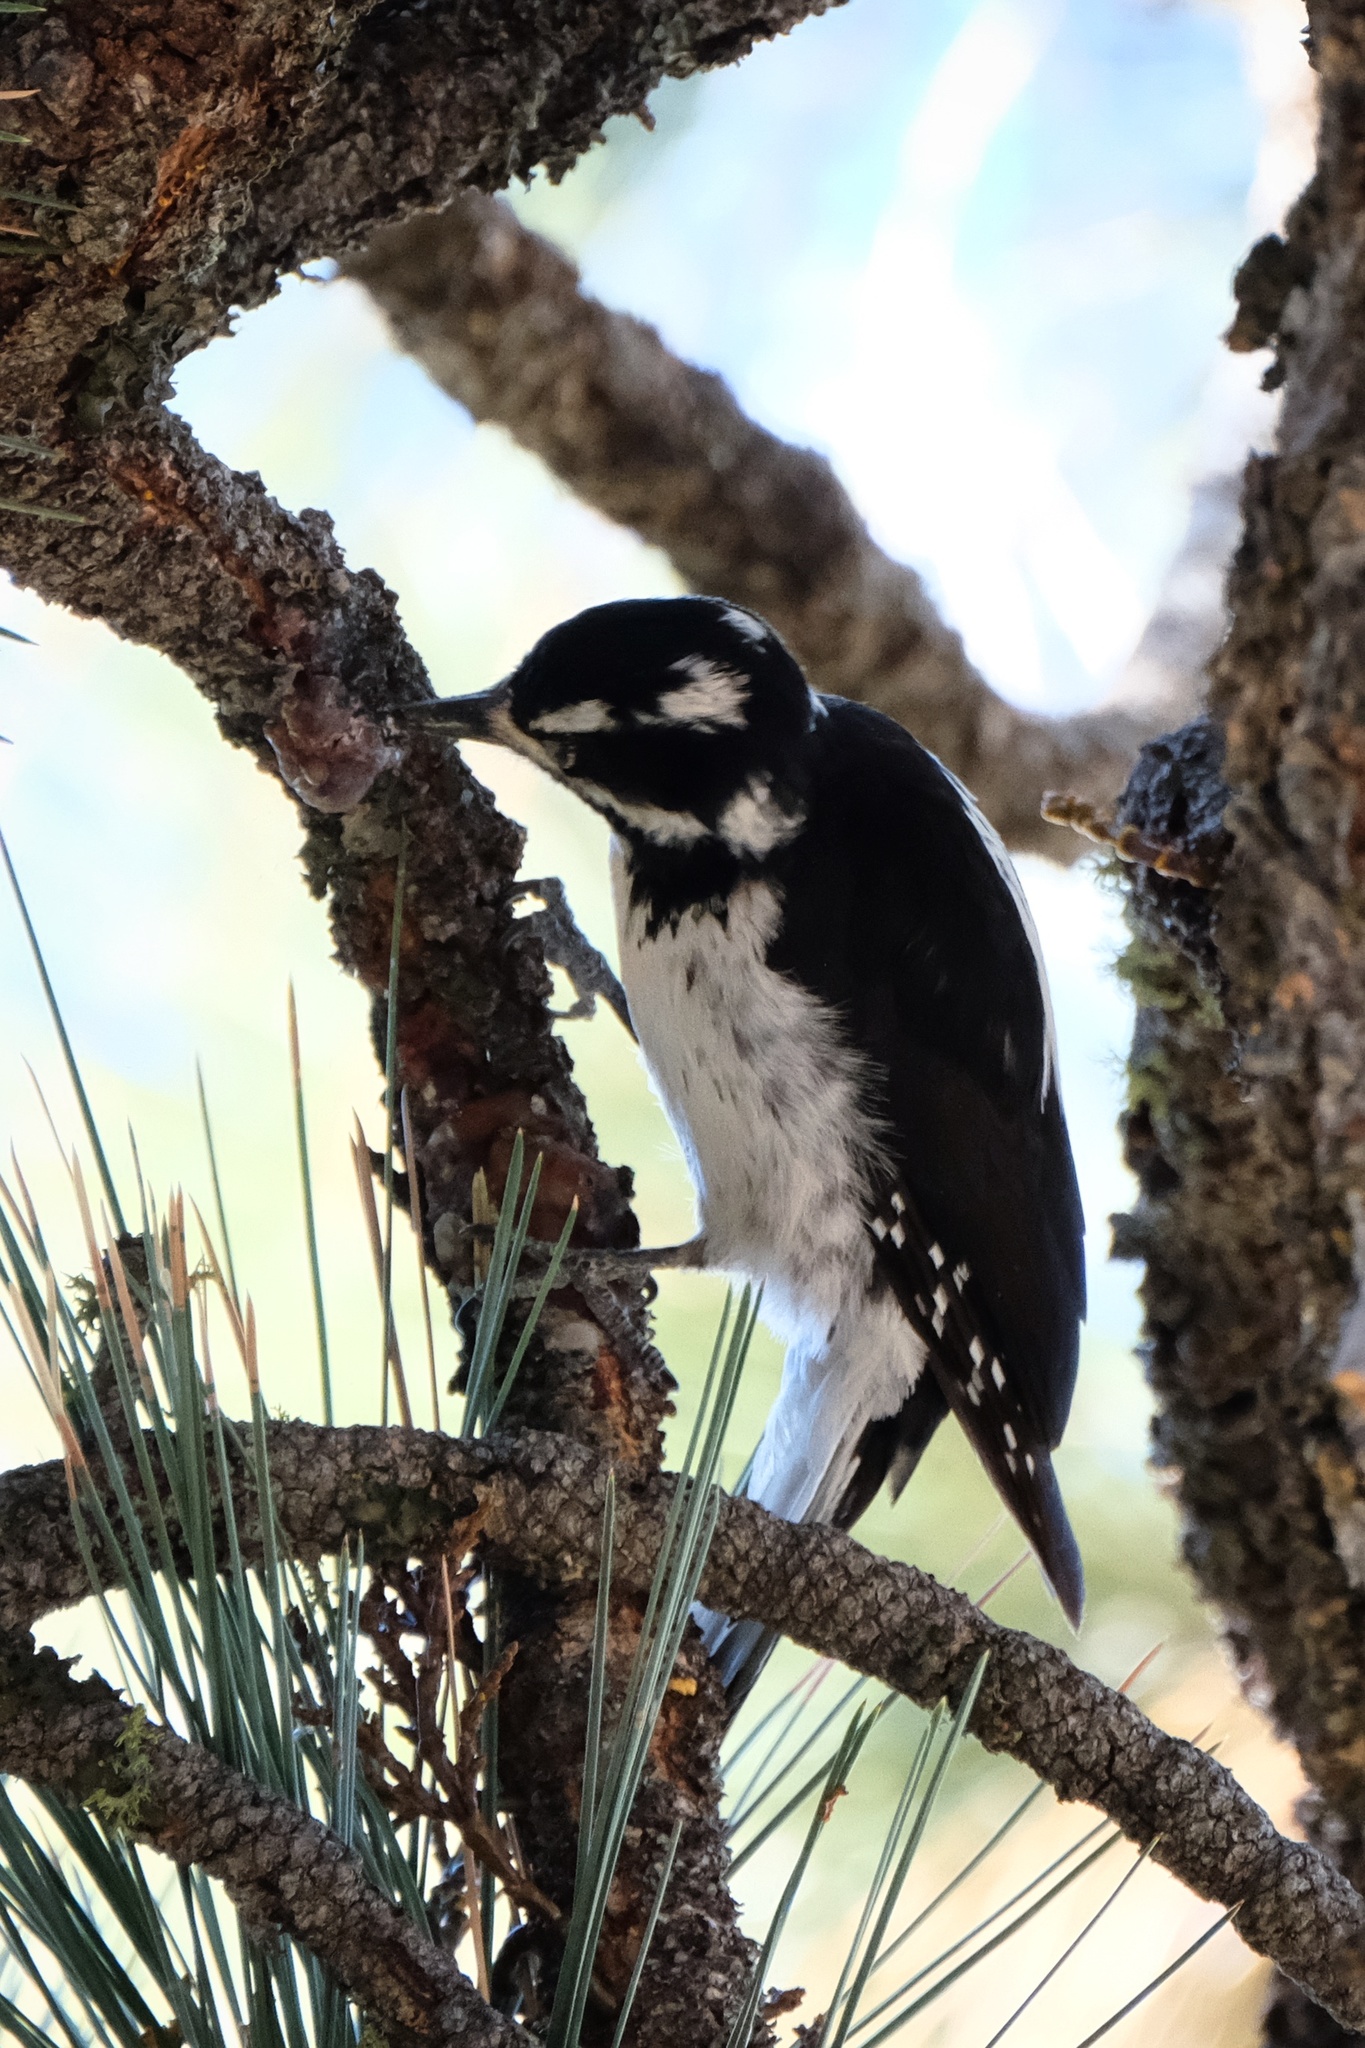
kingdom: Animalia
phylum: Chordata
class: Aves
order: Piciformes
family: Picidae
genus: Leuconotopicus
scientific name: Leuconotopicus villosus
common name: Hairy woodpecker
